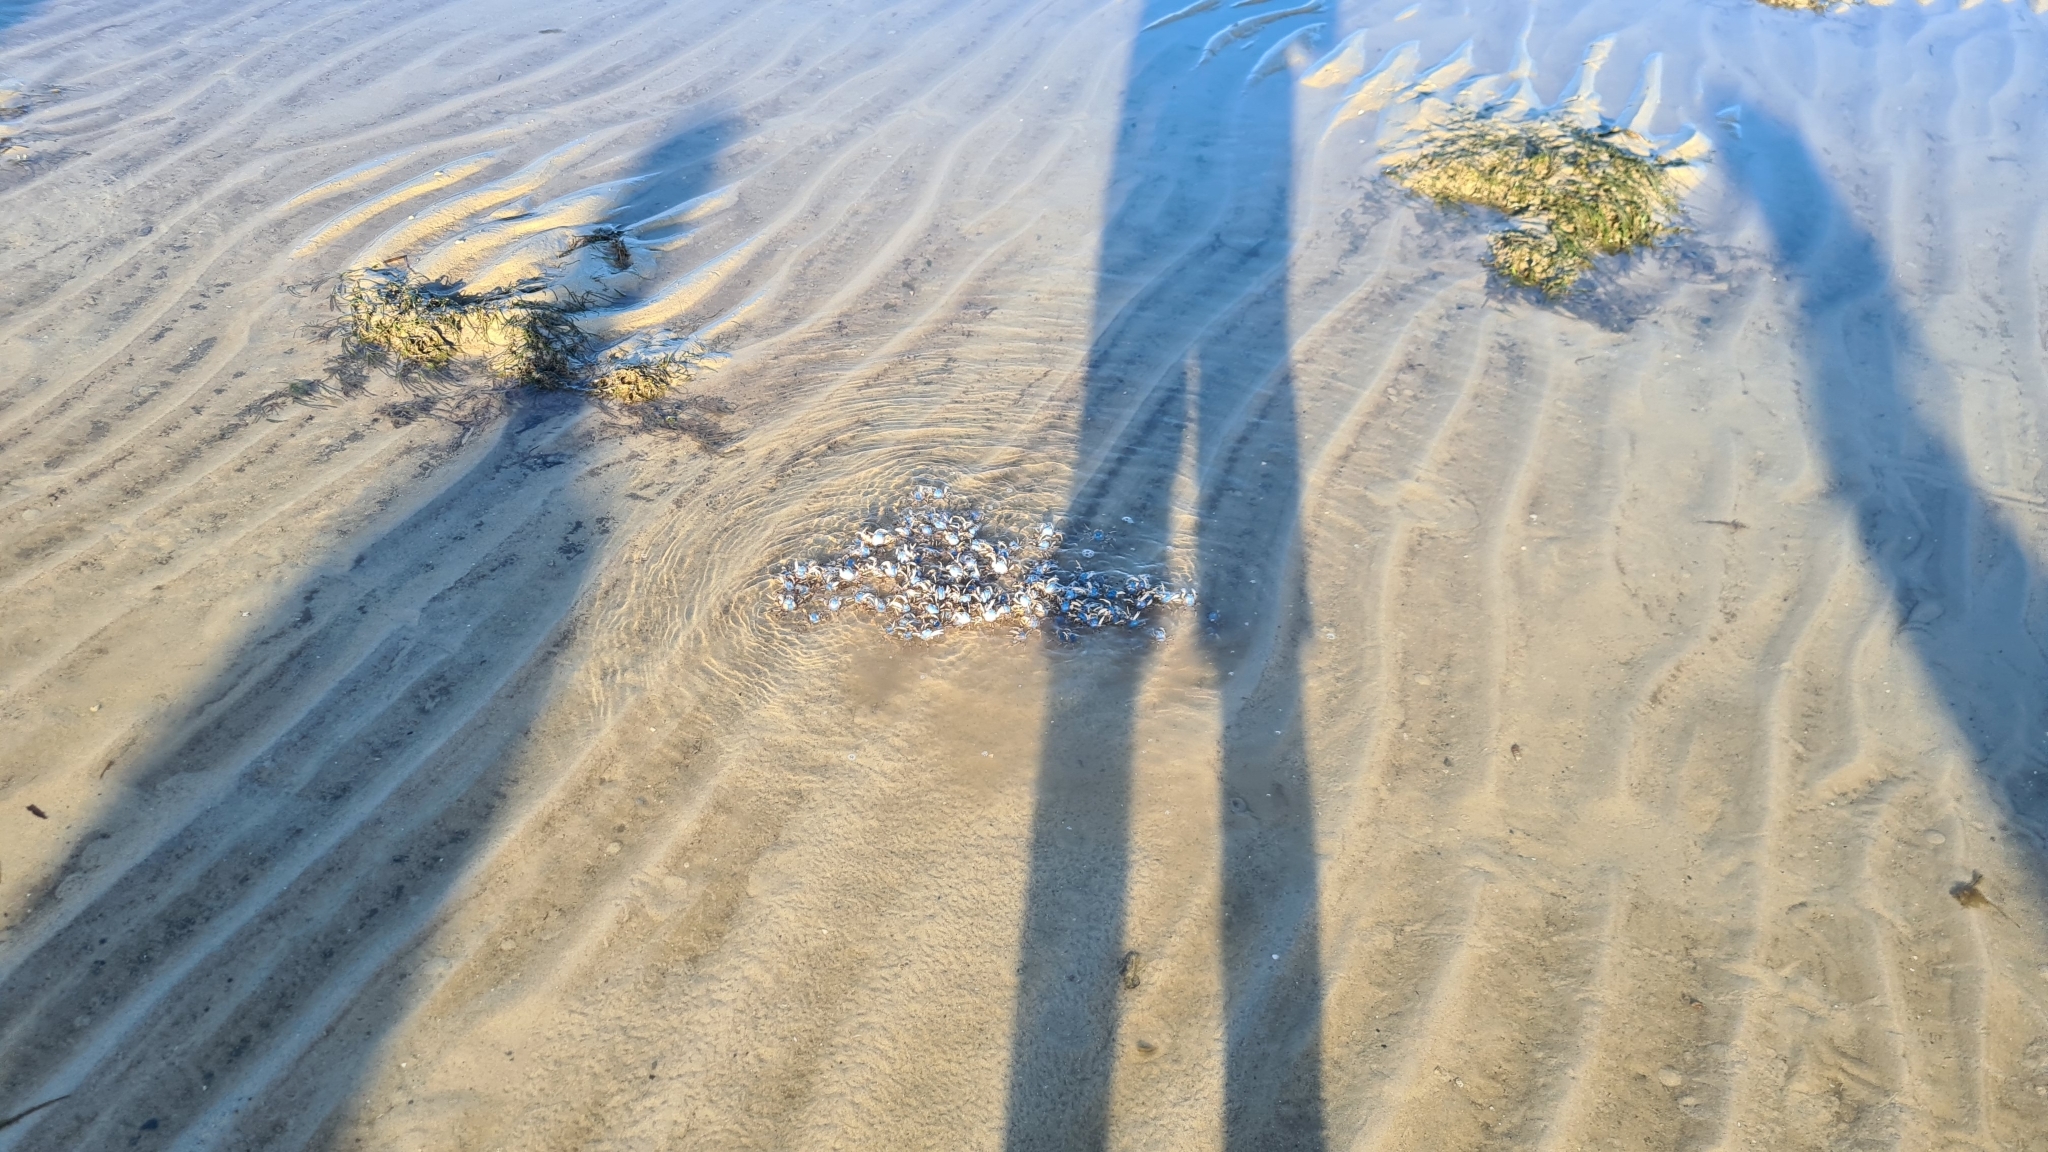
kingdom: Animalia
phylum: Arthropoda
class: Malacostraca
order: Decapoda
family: Mictyridae
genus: Mictyris
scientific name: Mictyris longicarpus
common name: Light-blue soldier crab
